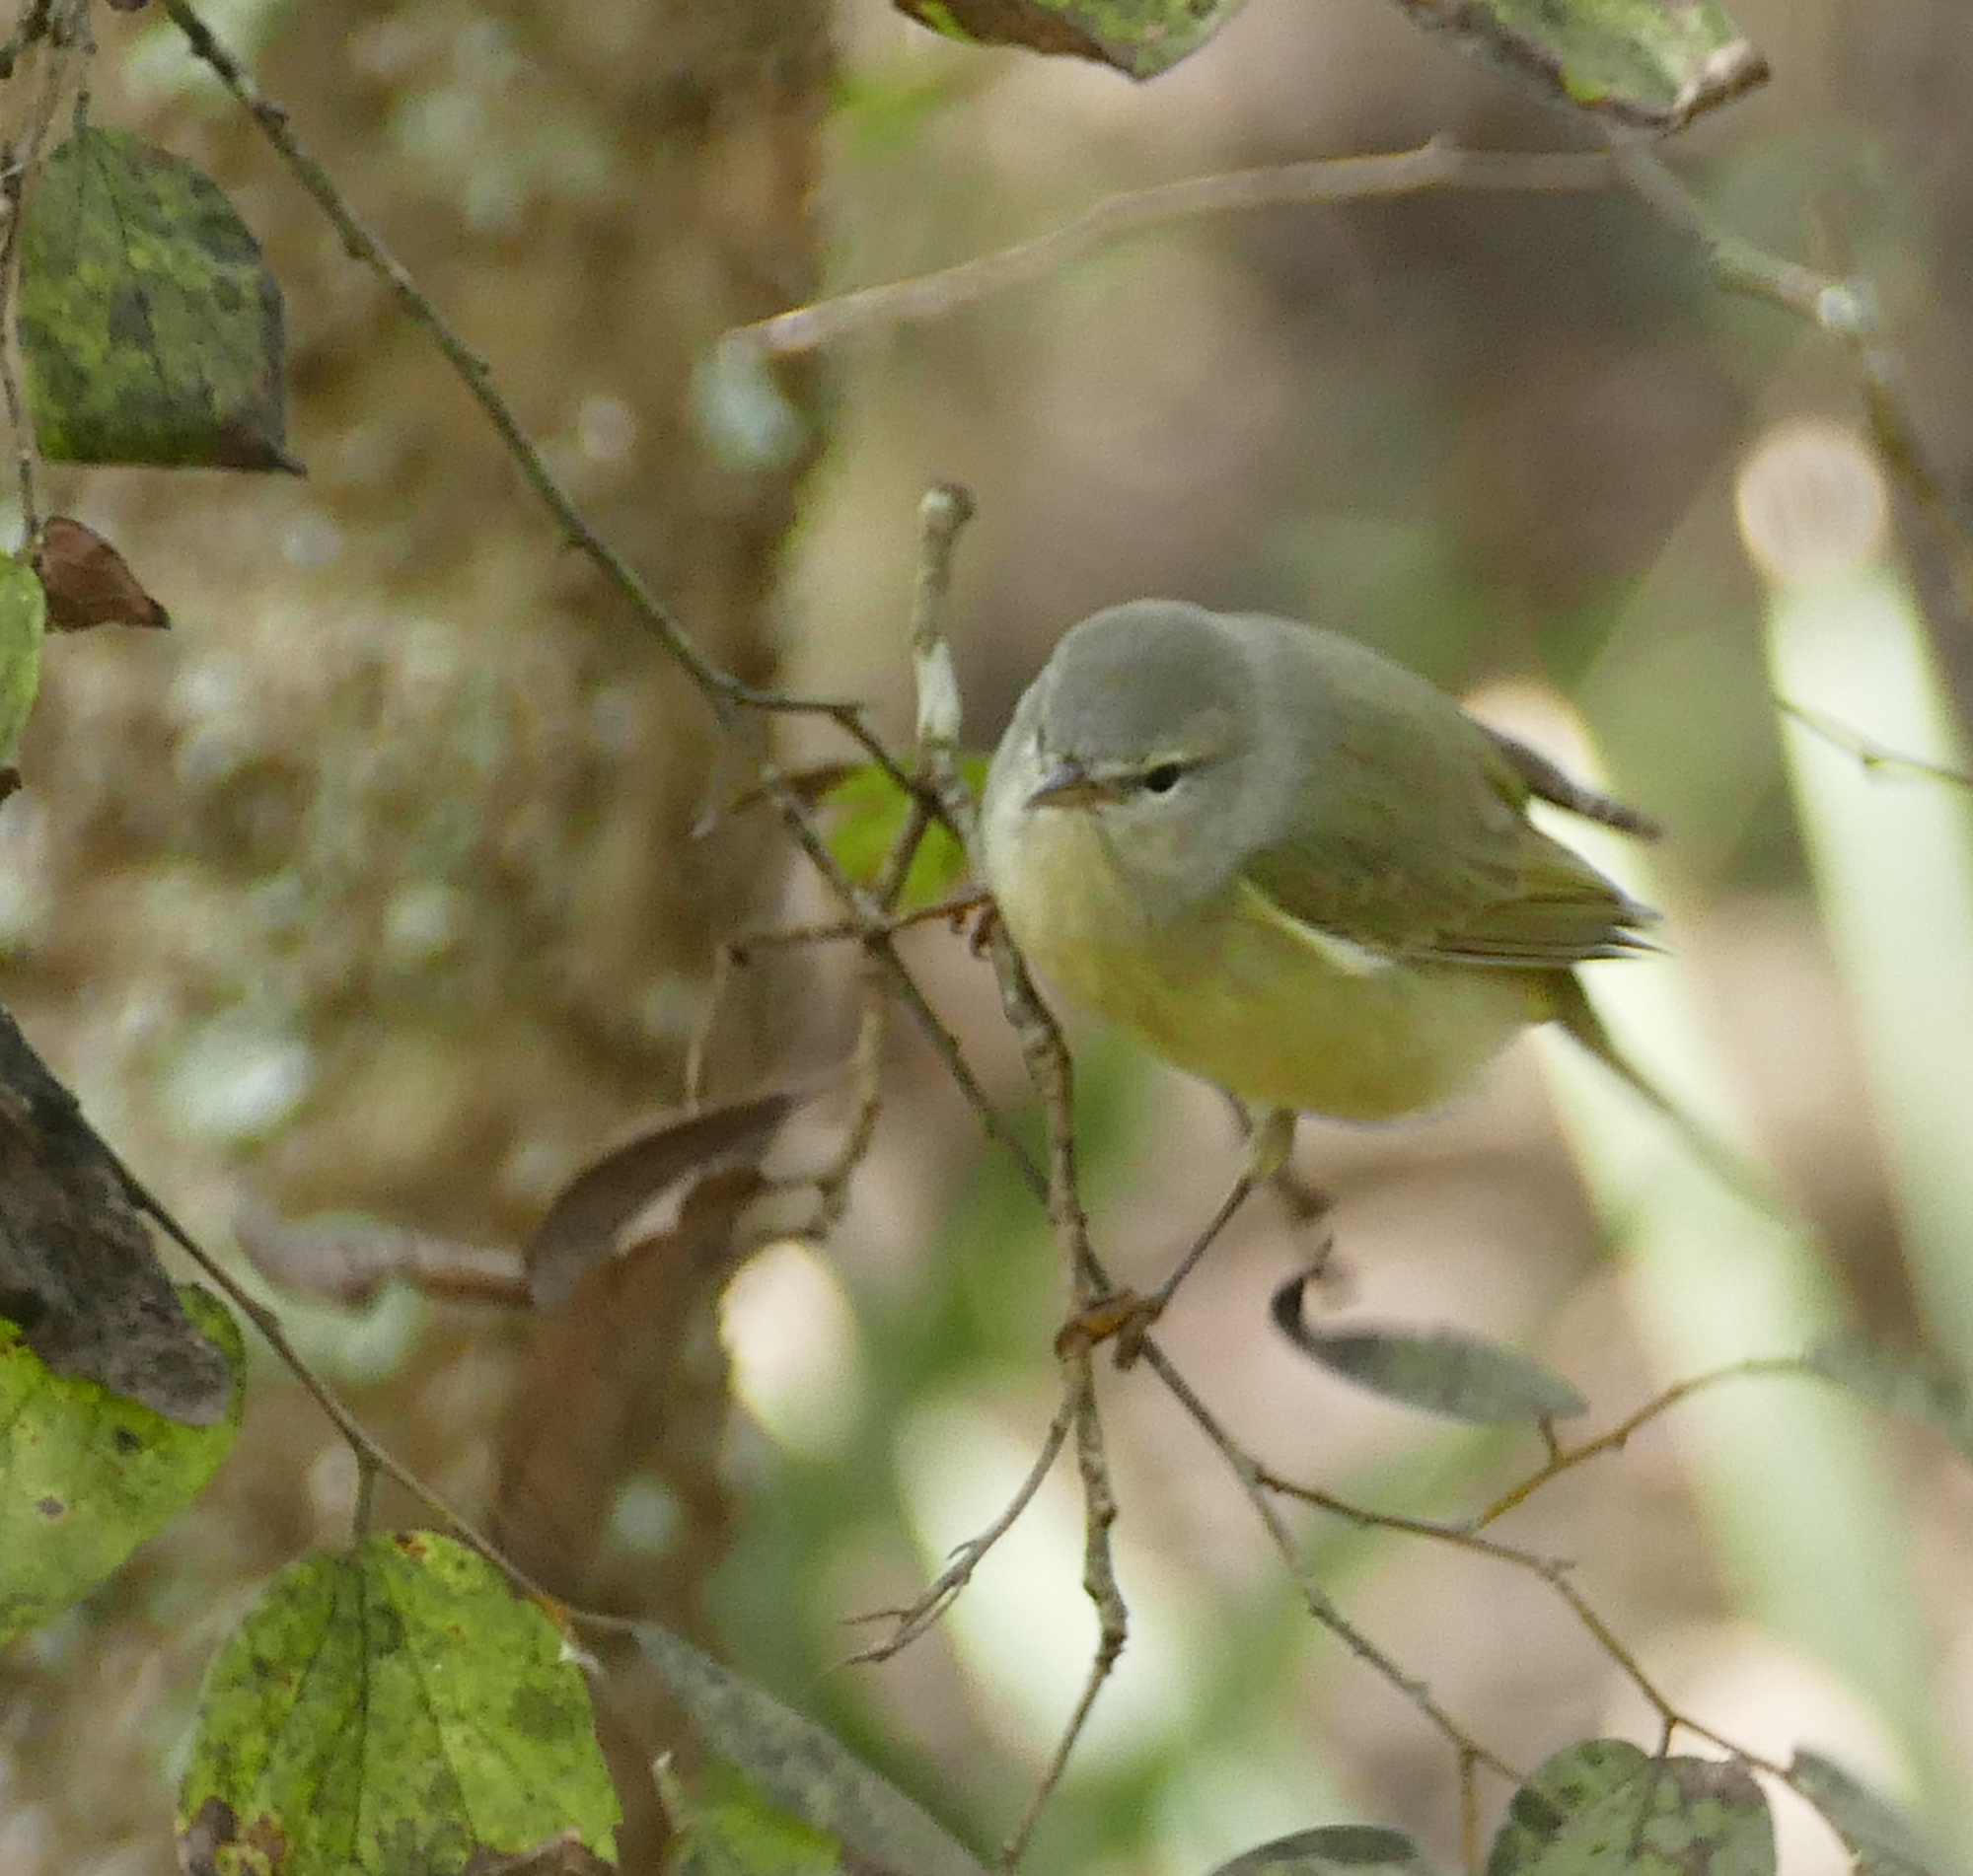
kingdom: Animalia
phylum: Chordata
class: Aves
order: Passeriformes
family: Parulidae
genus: Leiothlypis
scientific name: Leiothlypis celata
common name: Orange-crowned warbler
